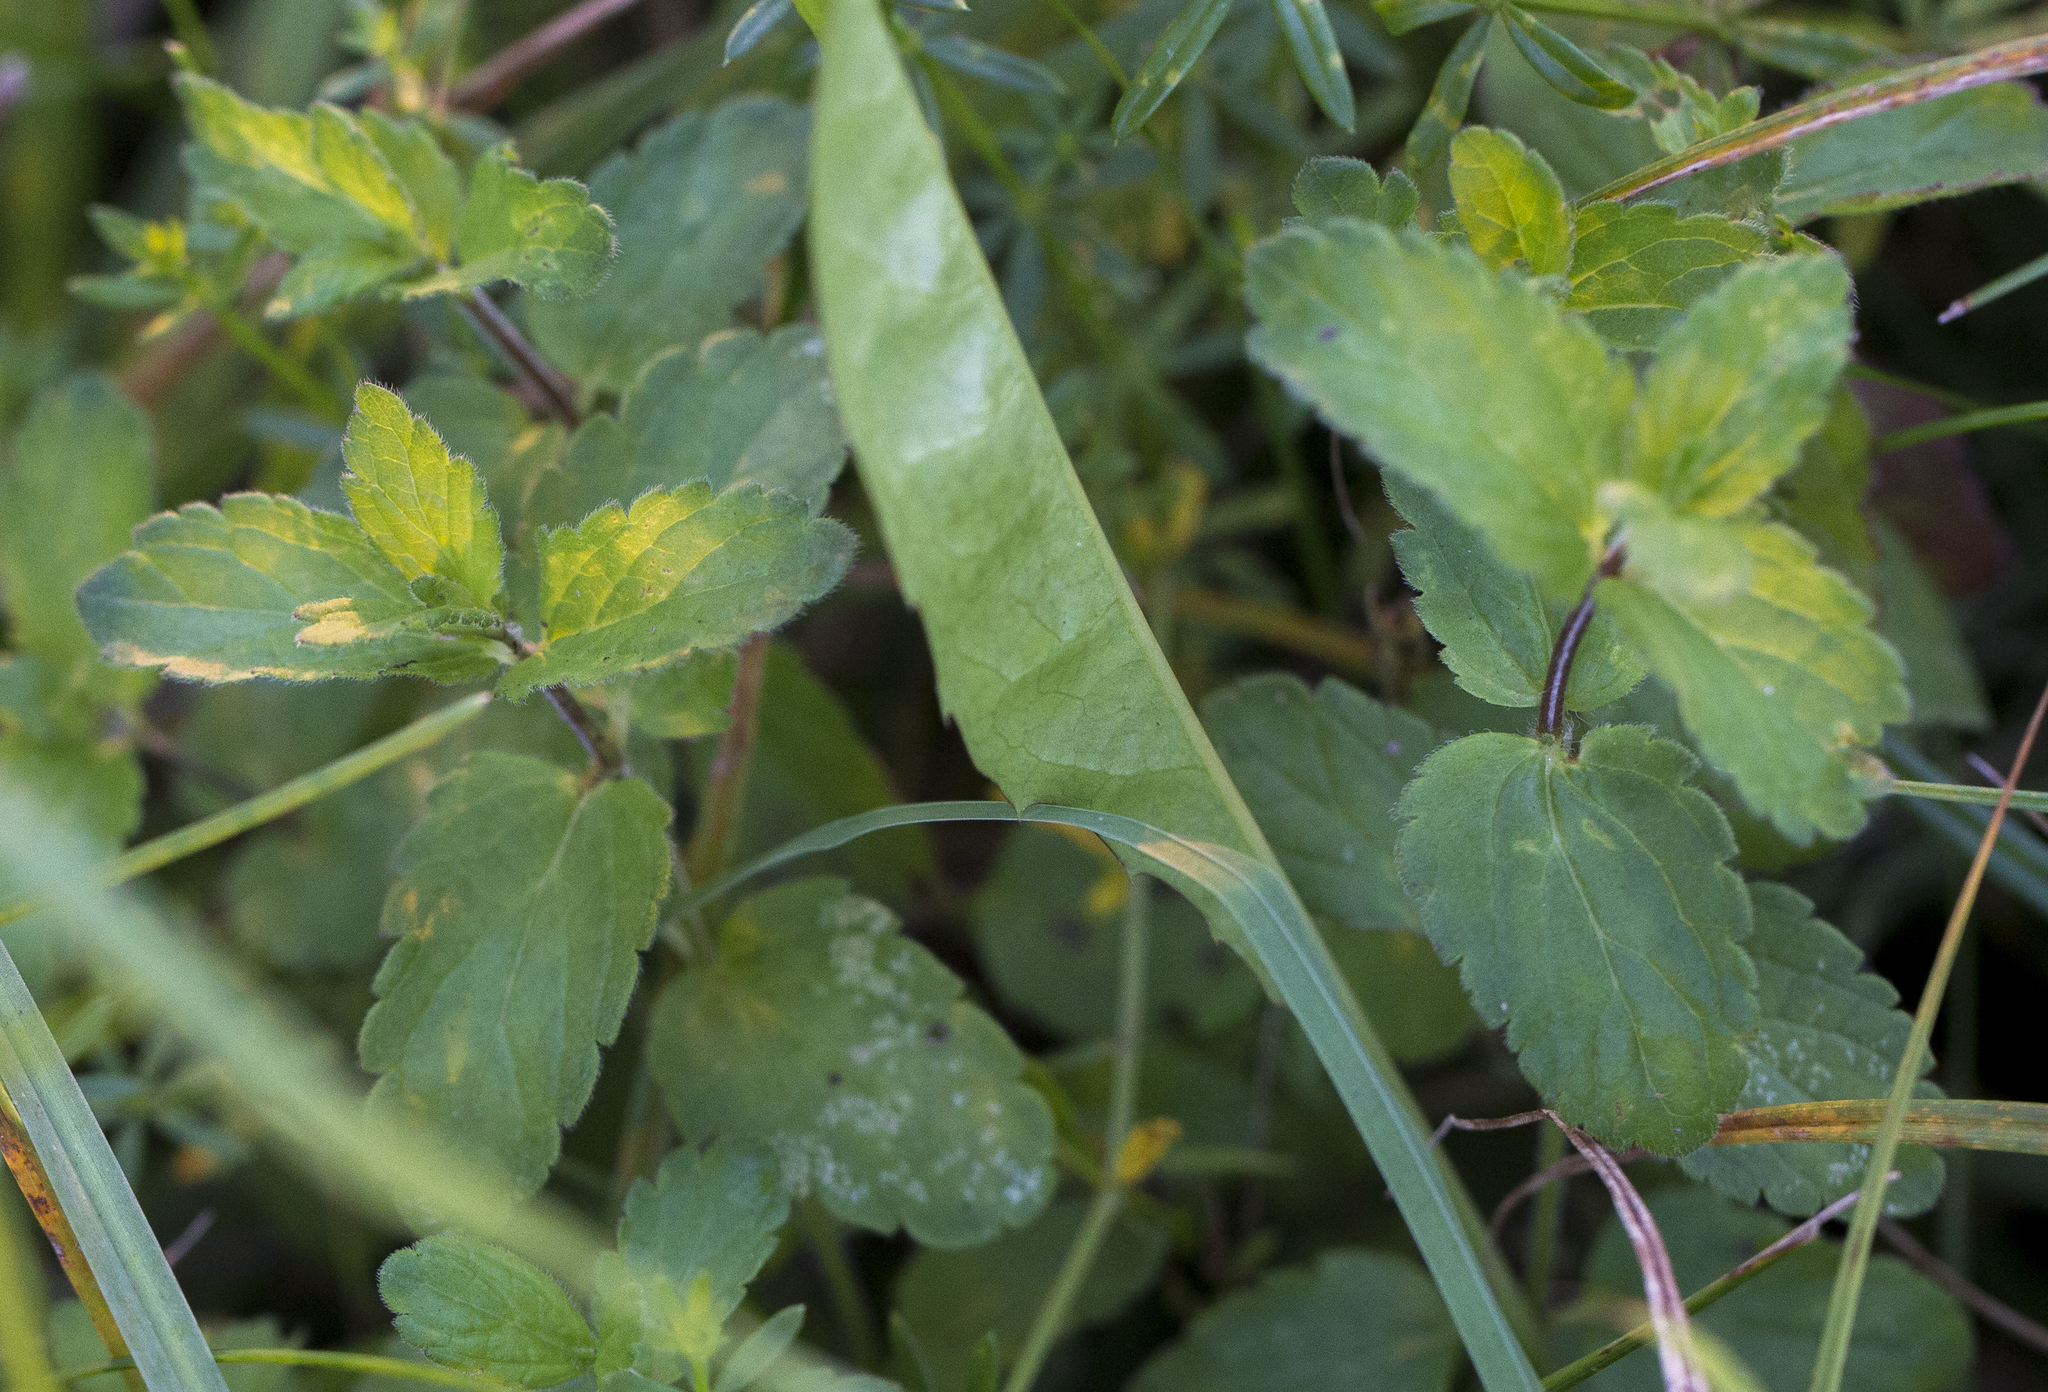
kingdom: Plantae
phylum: Tracheophyta
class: Magnoliopsida
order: Lamiales
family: Plantaginaceae
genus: Veronica
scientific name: Veronica chamaedrys
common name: Germander speedwell
